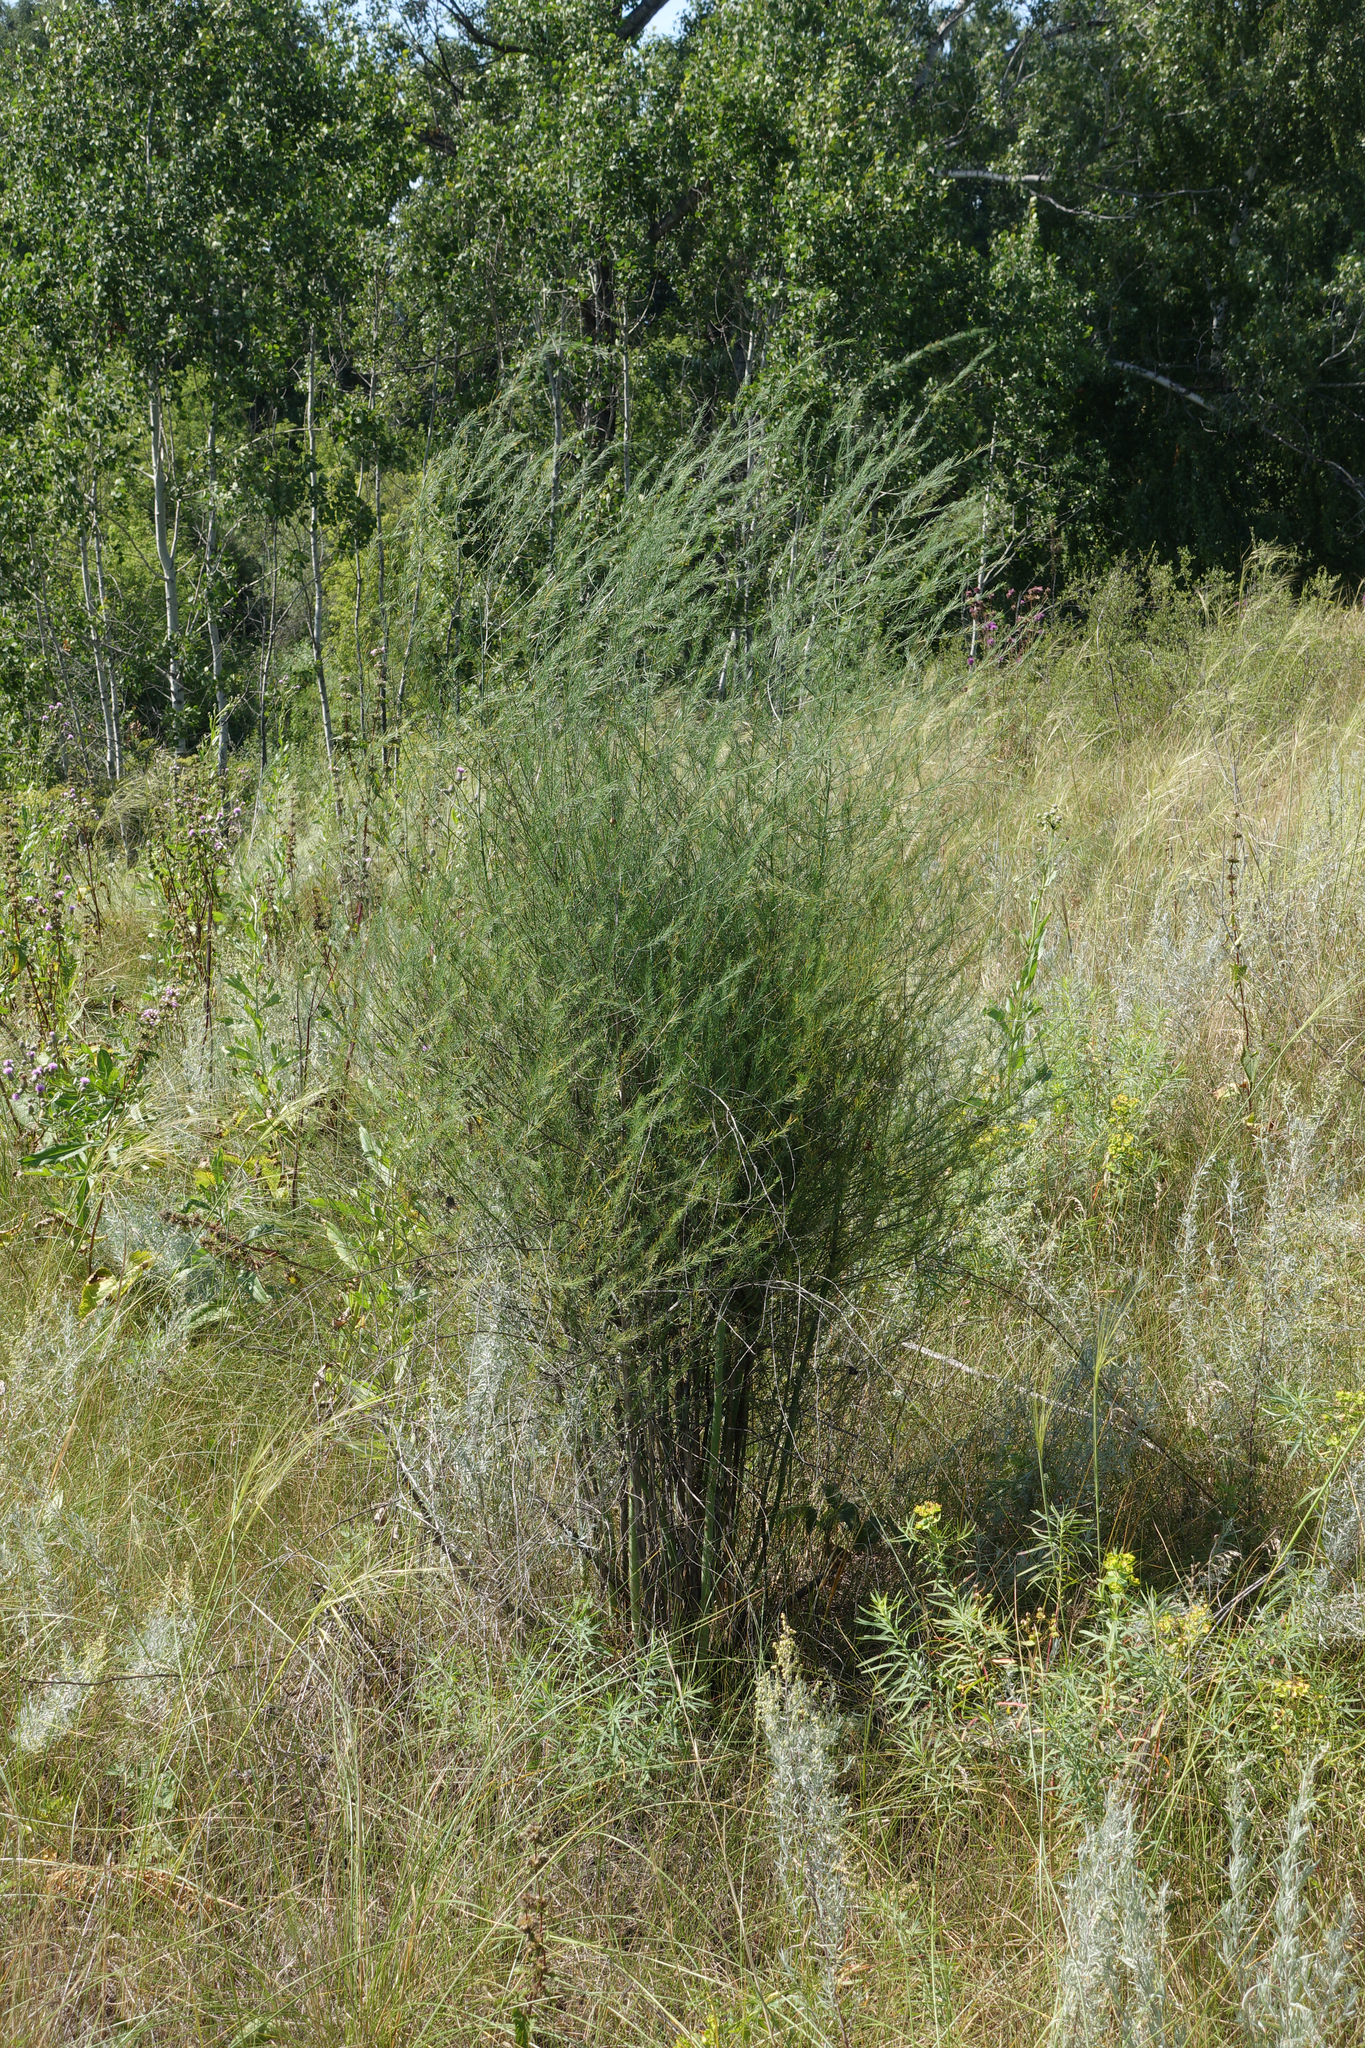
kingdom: Plantae
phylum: Tracheophyta
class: Liliopsida
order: Asparagales
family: Asparagaceae
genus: Asparagus
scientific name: Asparagus officinalis
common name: Garden asparagus
